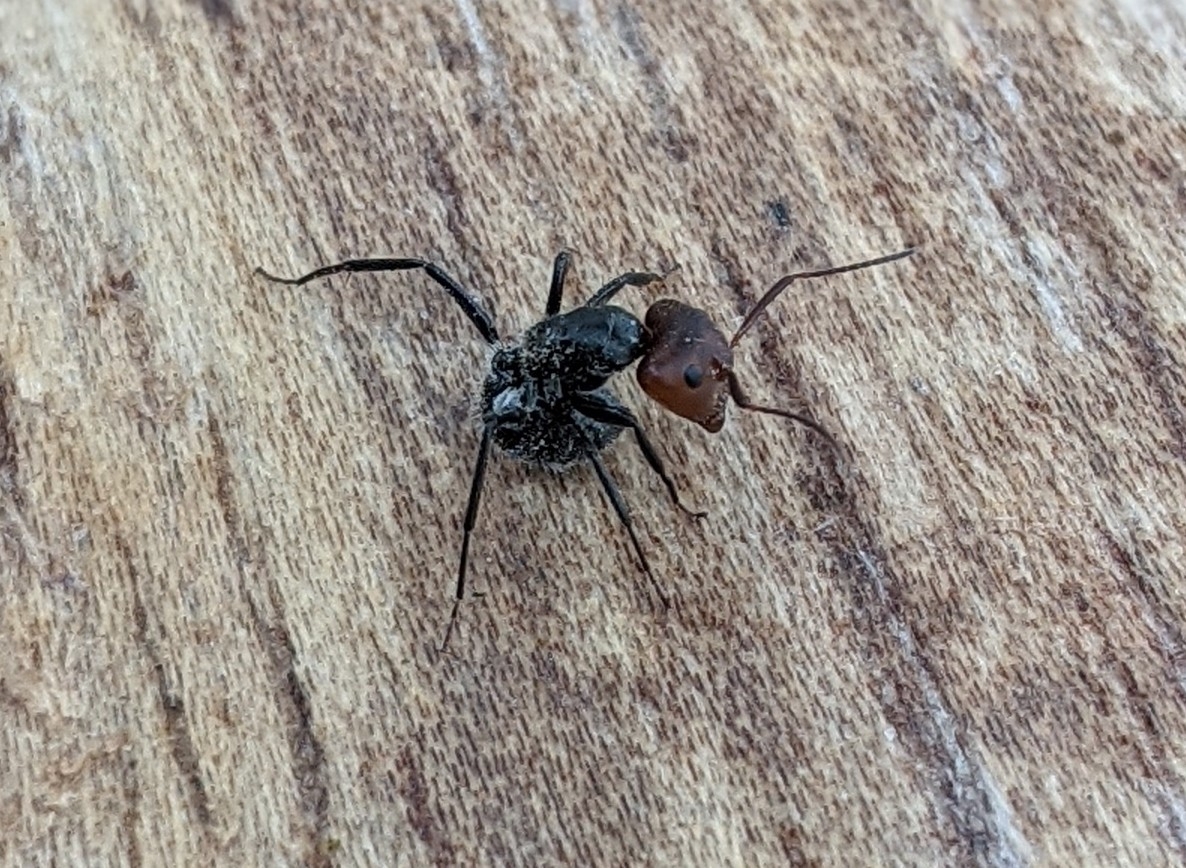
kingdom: Animalia
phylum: Arthropoda
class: Insecta
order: Hymenoptera
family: Formicidae
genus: Camponotus
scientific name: Camponotus lindigi
